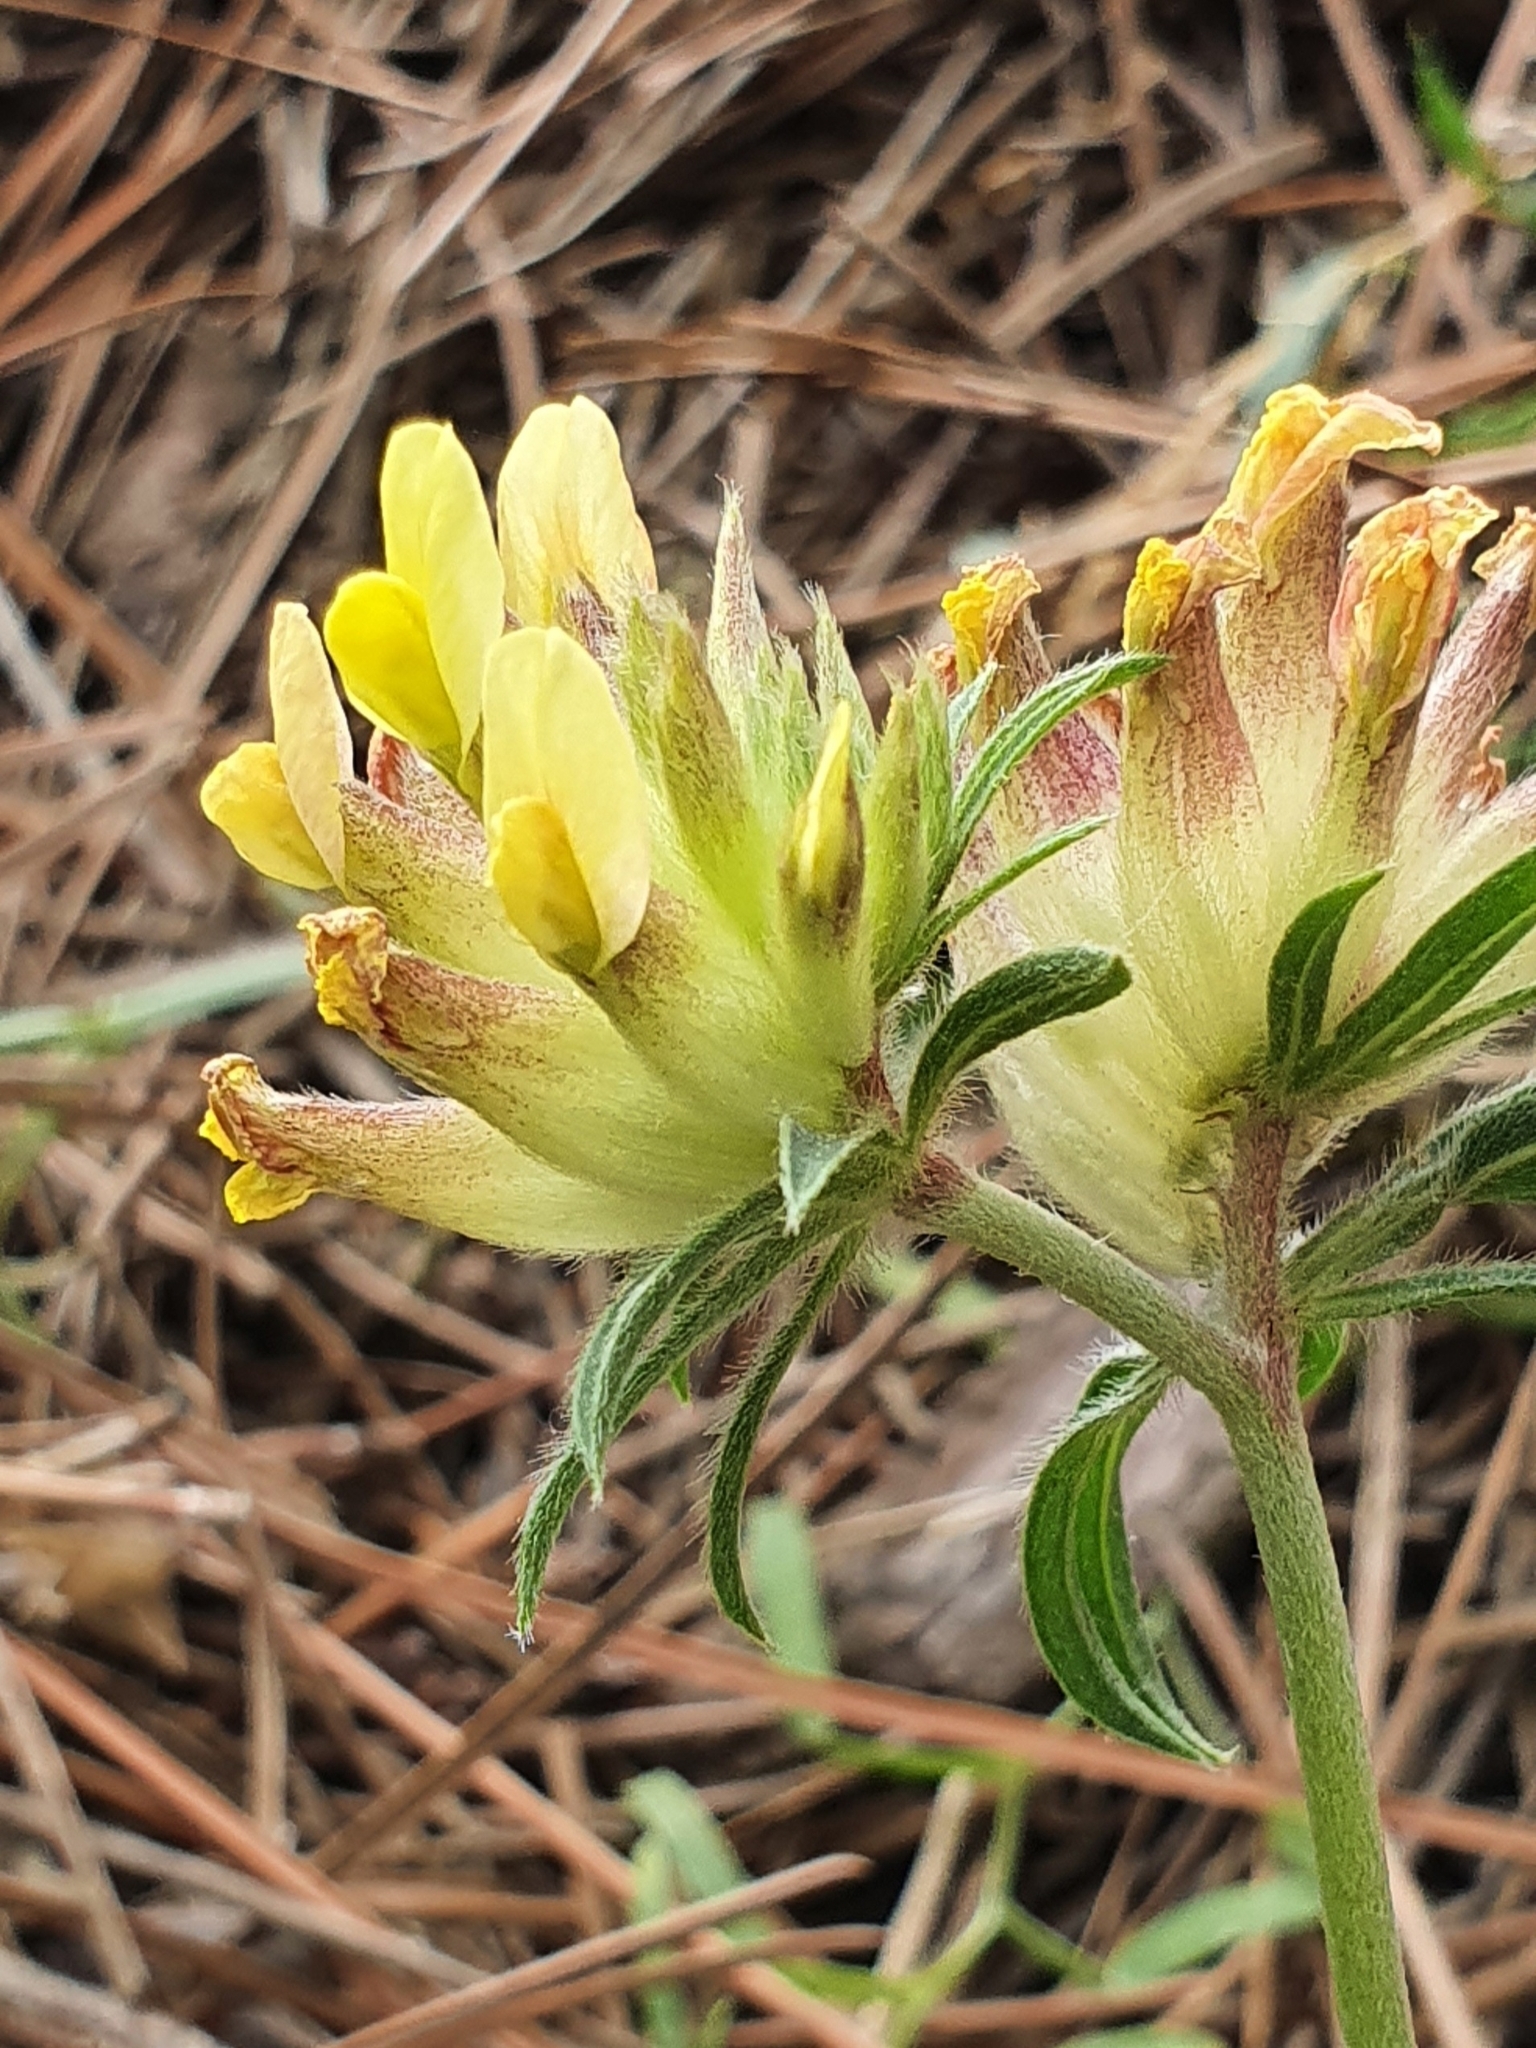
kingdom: Plantae
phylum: Tracheophyta
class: Magnoliopsida
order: Fabales
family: Fabaceae
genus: Anthyllis
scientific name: Anthyllis vulneraria
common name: Kidney vetch
